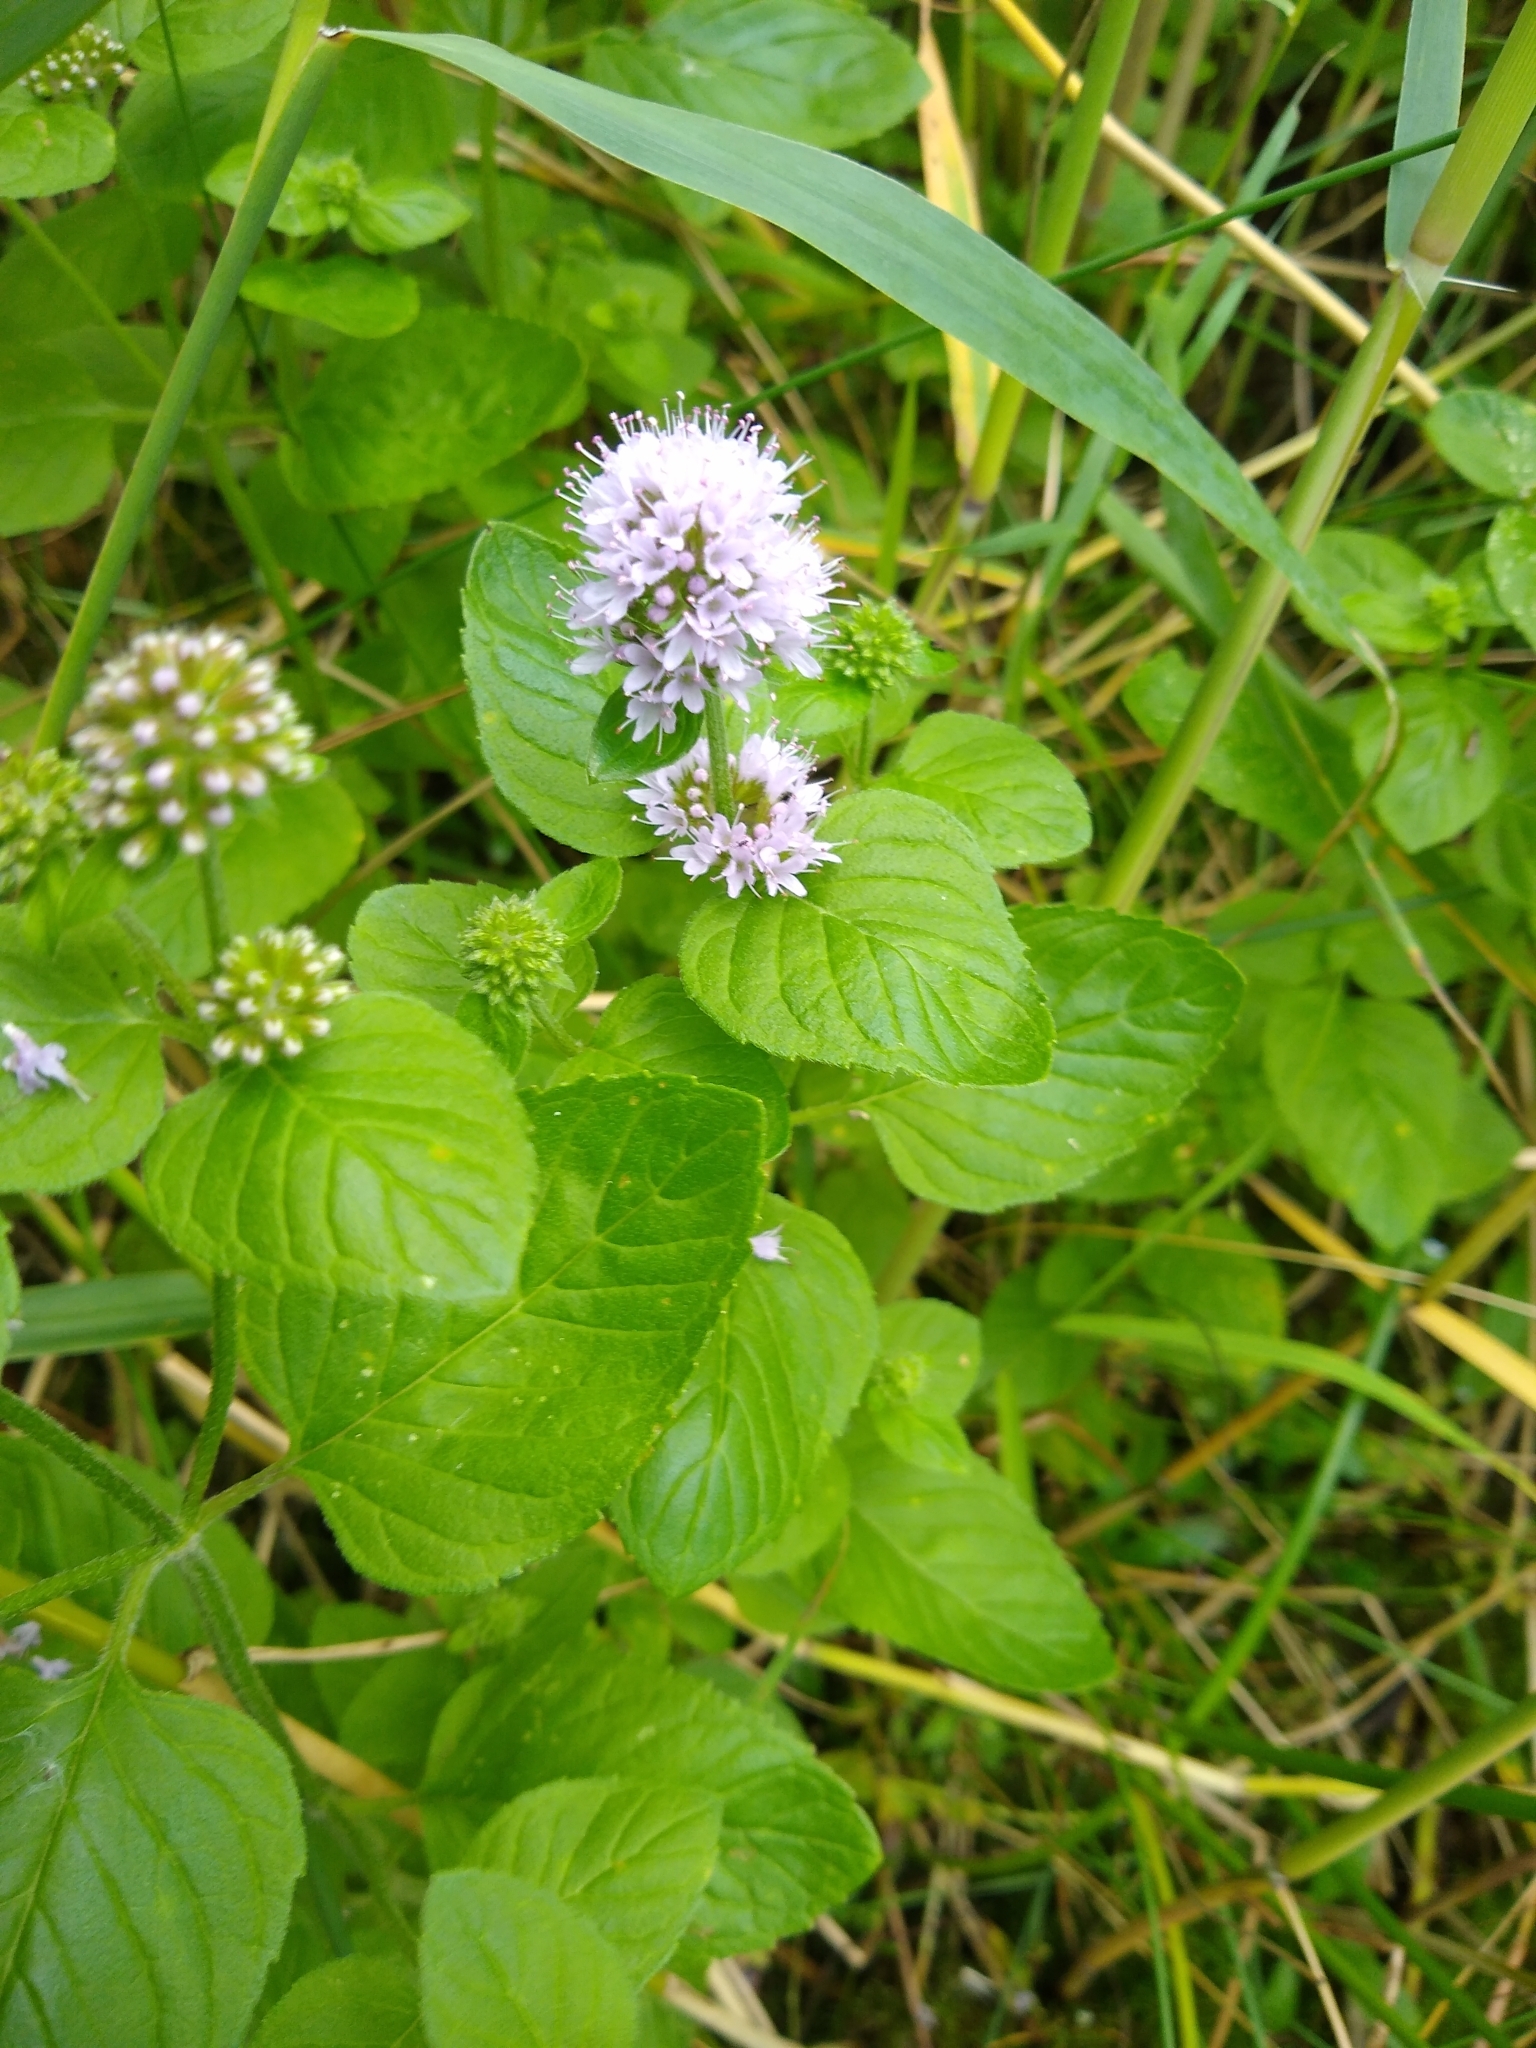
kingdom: Plantae
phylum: Tracheophyta
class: Magnoliopsida
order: Lamiales
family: Lamiaceae
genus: Mentha
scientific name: Mentha aquatica
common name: Water mint
